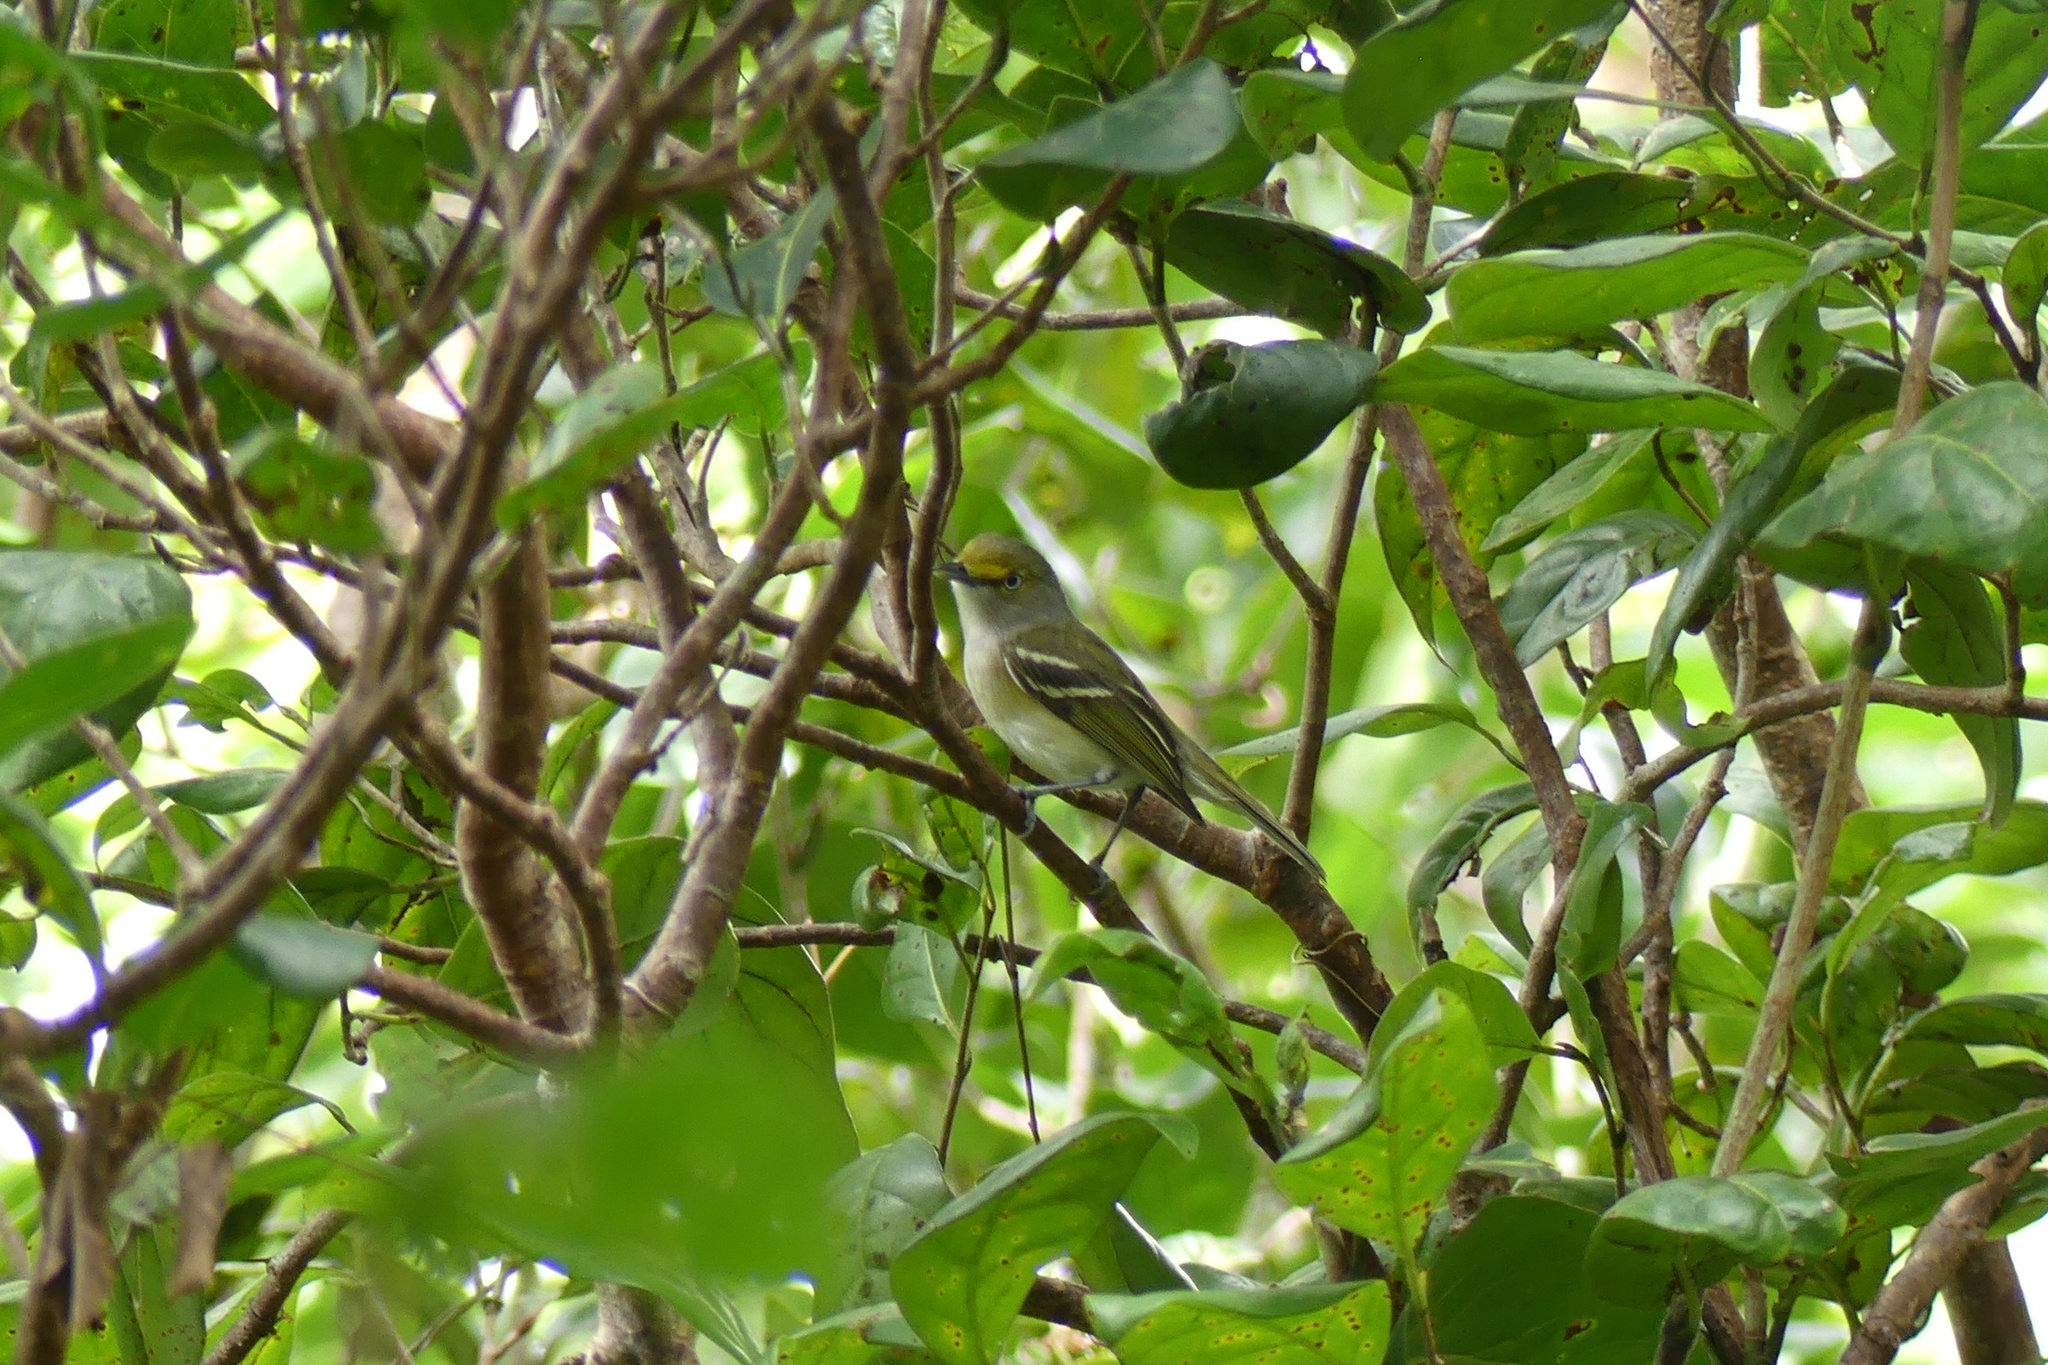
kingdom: Animalia
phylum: Chordata
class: Aves
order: Passeriformes
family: Vireonidae
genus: Vireo
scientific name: Vireo griseus
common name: White-eyed vireo
